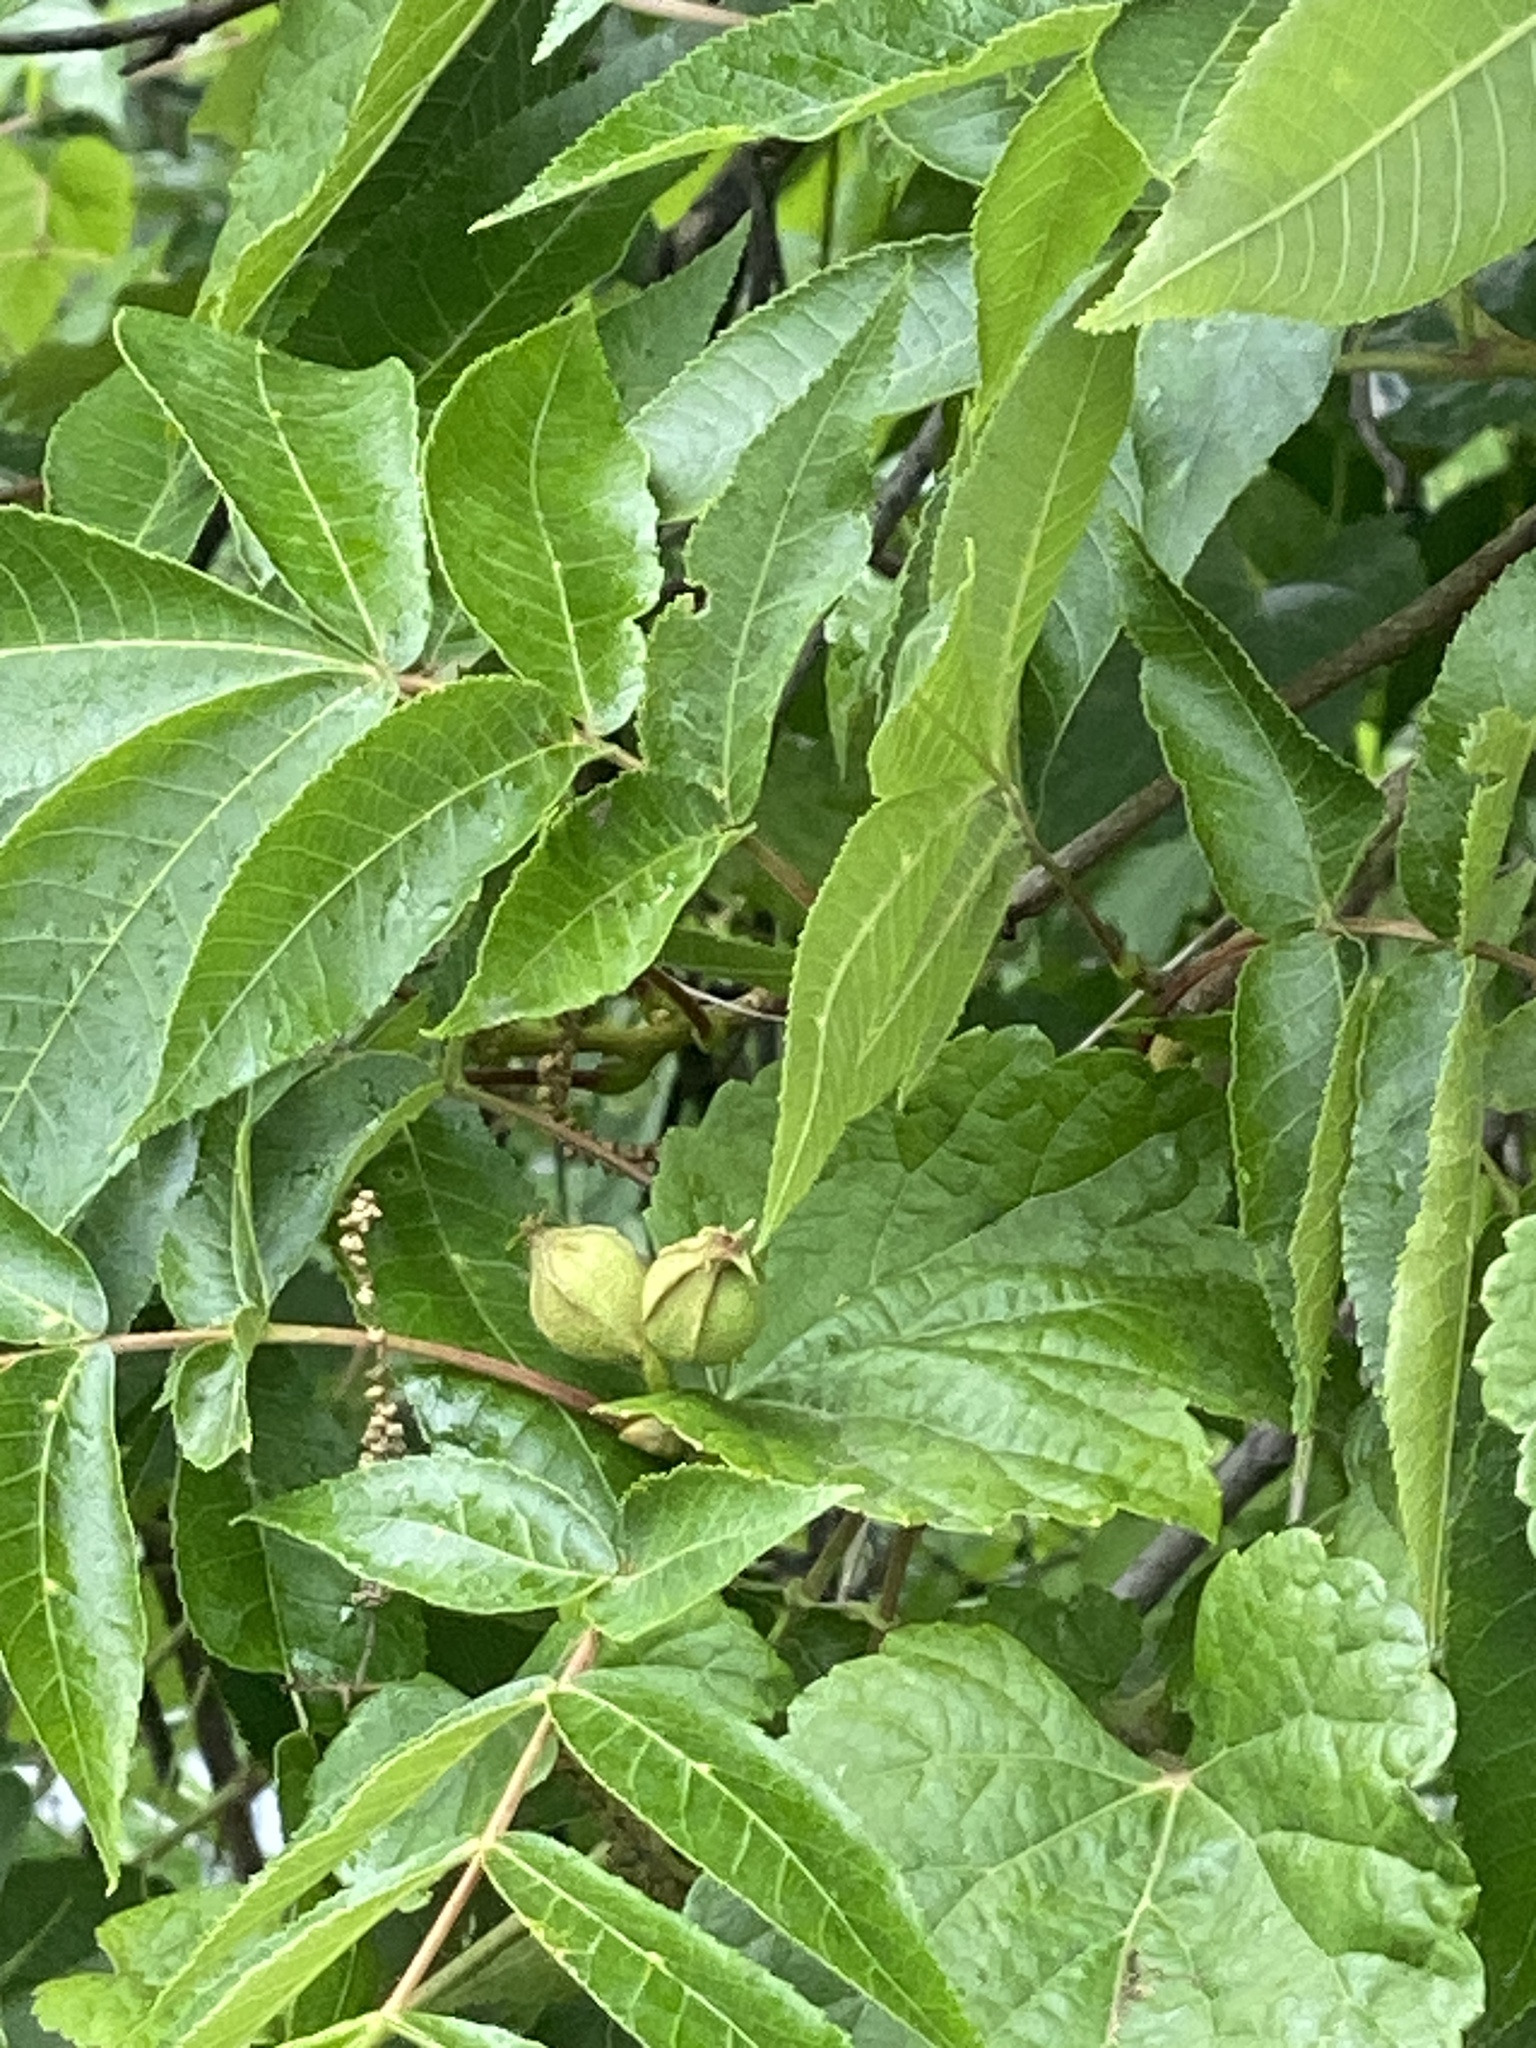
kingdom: Plantae
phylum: Tracheophyta
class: Magnoliopsida
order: Fagales
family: Juglandaceae
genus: Carya
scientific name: Carya cordiformis
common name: Bitternut hickory
